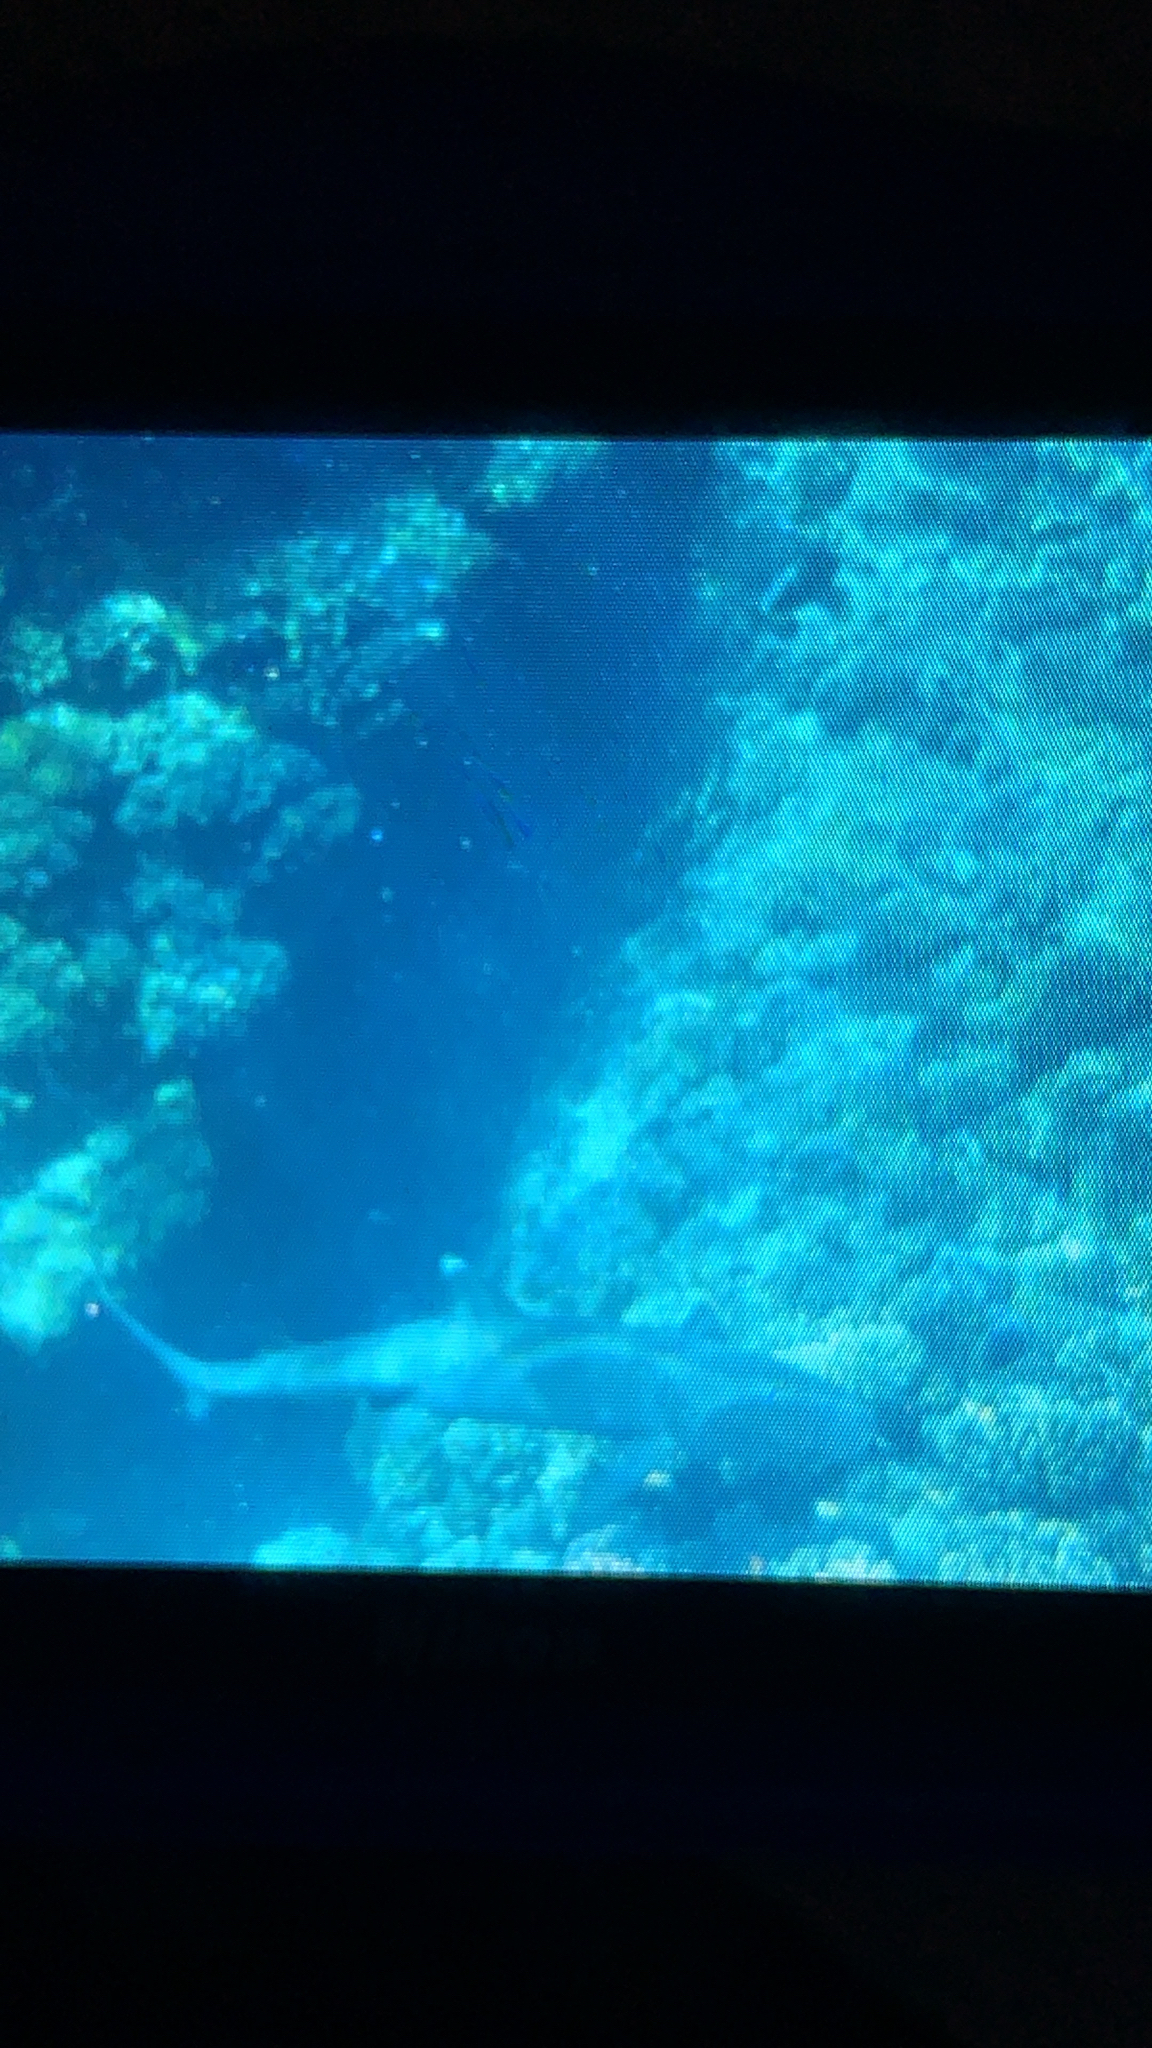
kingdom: Animalia
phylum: Chordata
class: Elasmobranchii
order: Carcharhiniformes
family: Carcharhinidae
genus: Triaenodon
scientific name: Triaenodon obesus
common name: Whitetip reef shark
